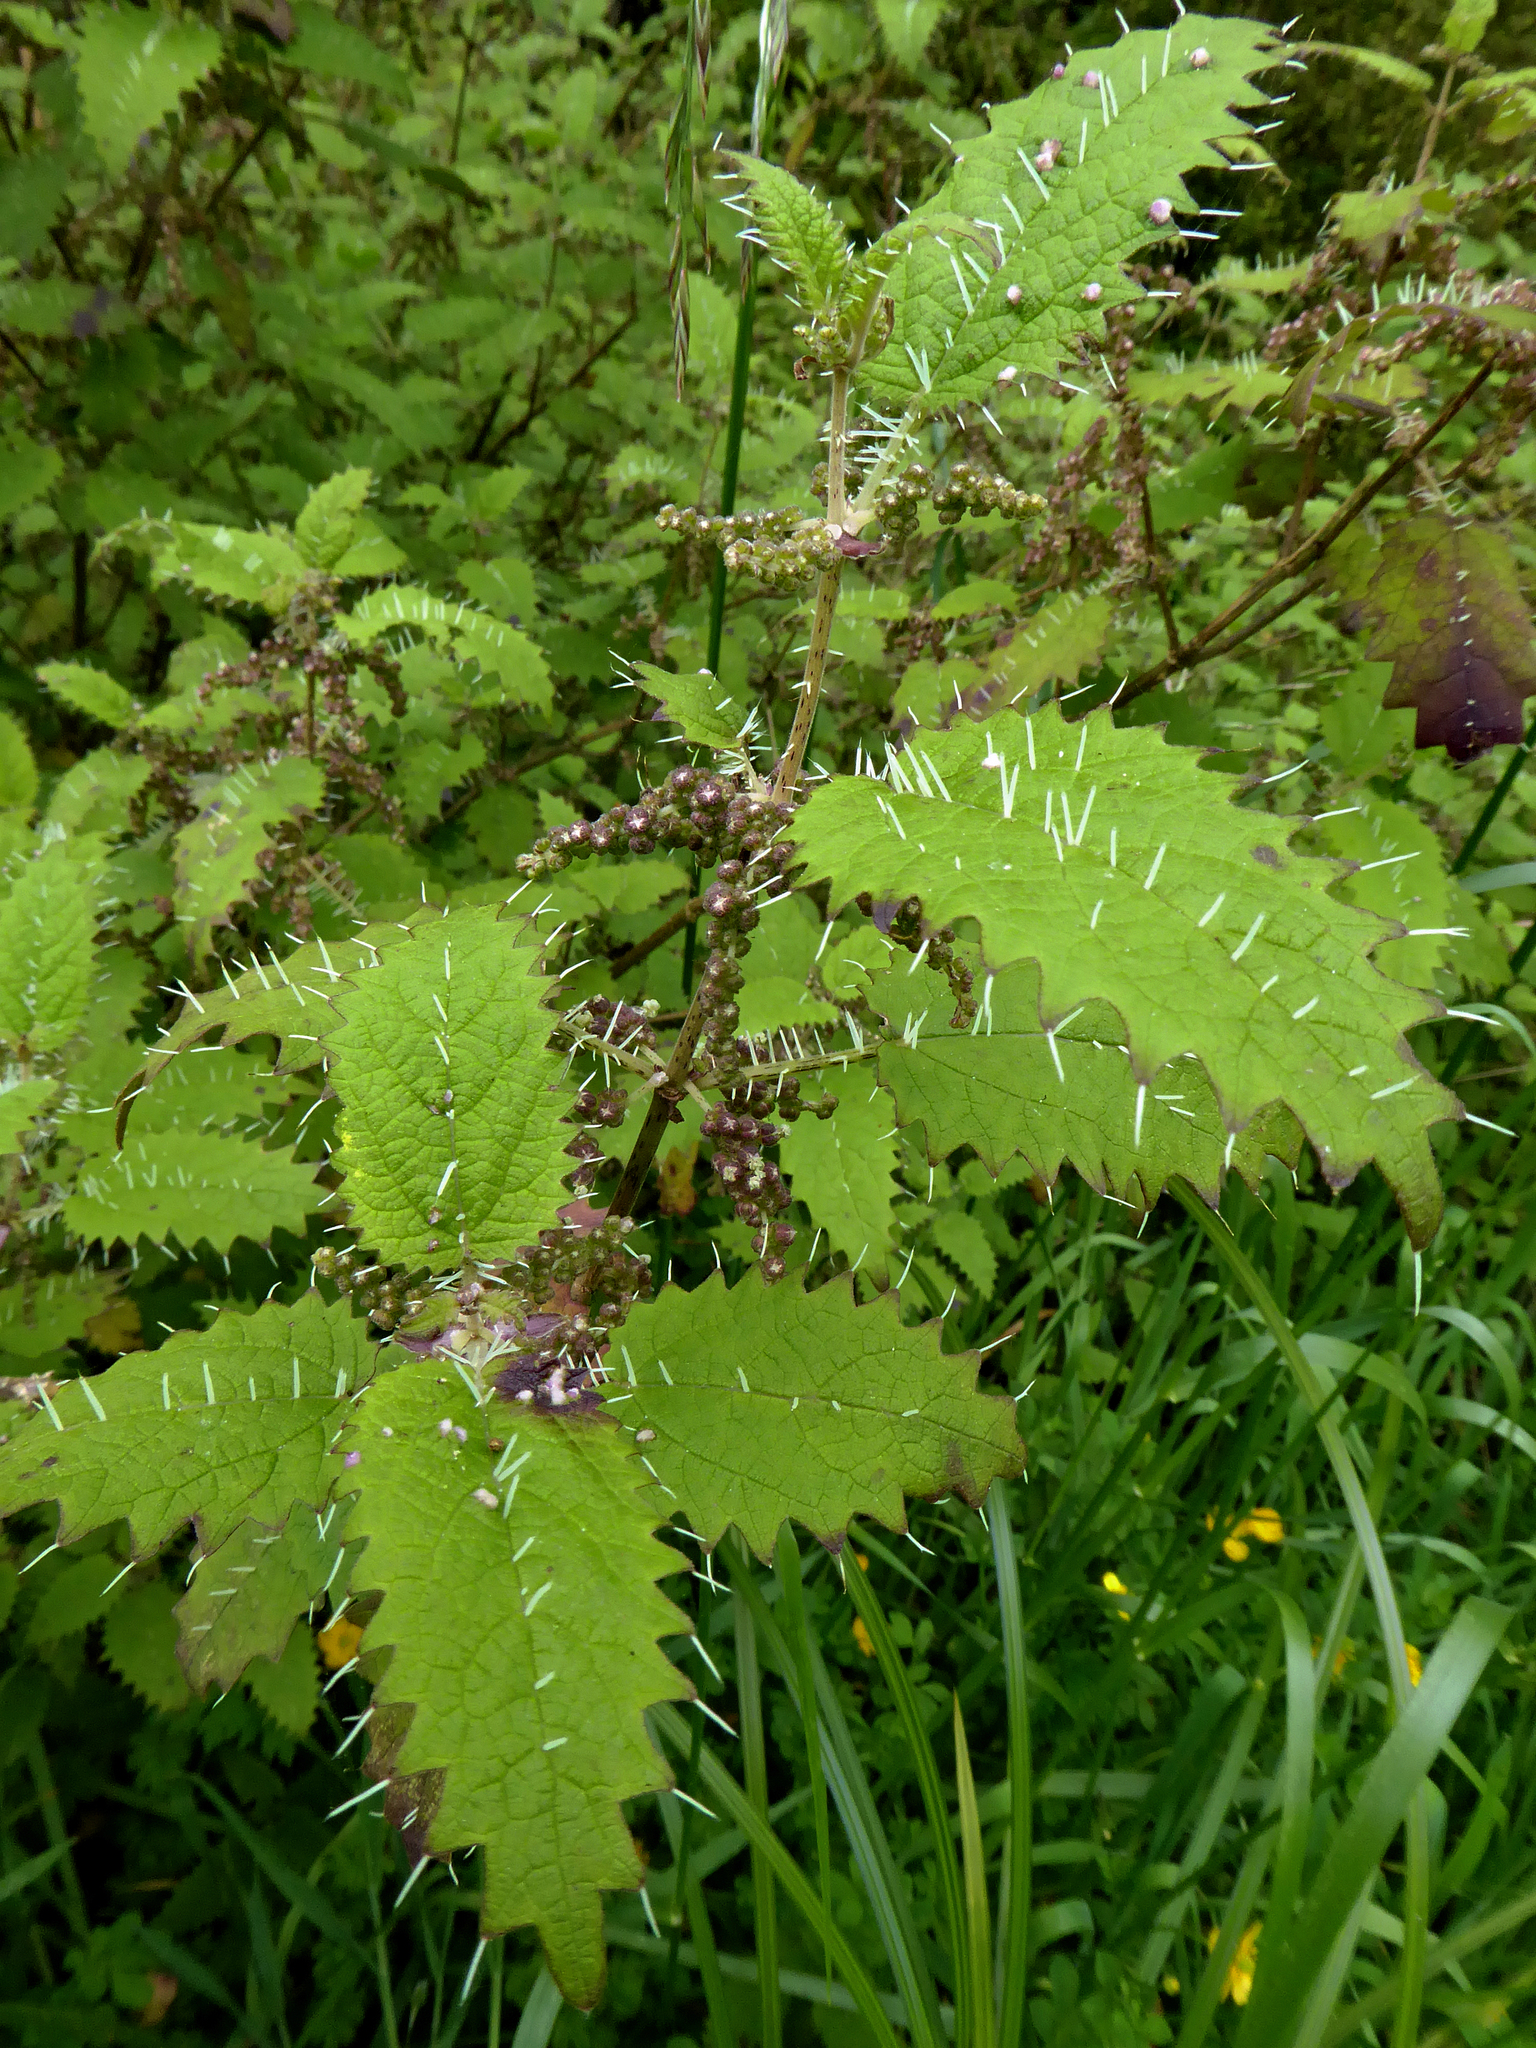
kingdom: Plantae
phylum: Tracheophyta
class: Magnoliopsida
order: Rosales
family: Urticaceae
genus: Urtica
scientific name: Urtica ferox
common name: Tree nettle
